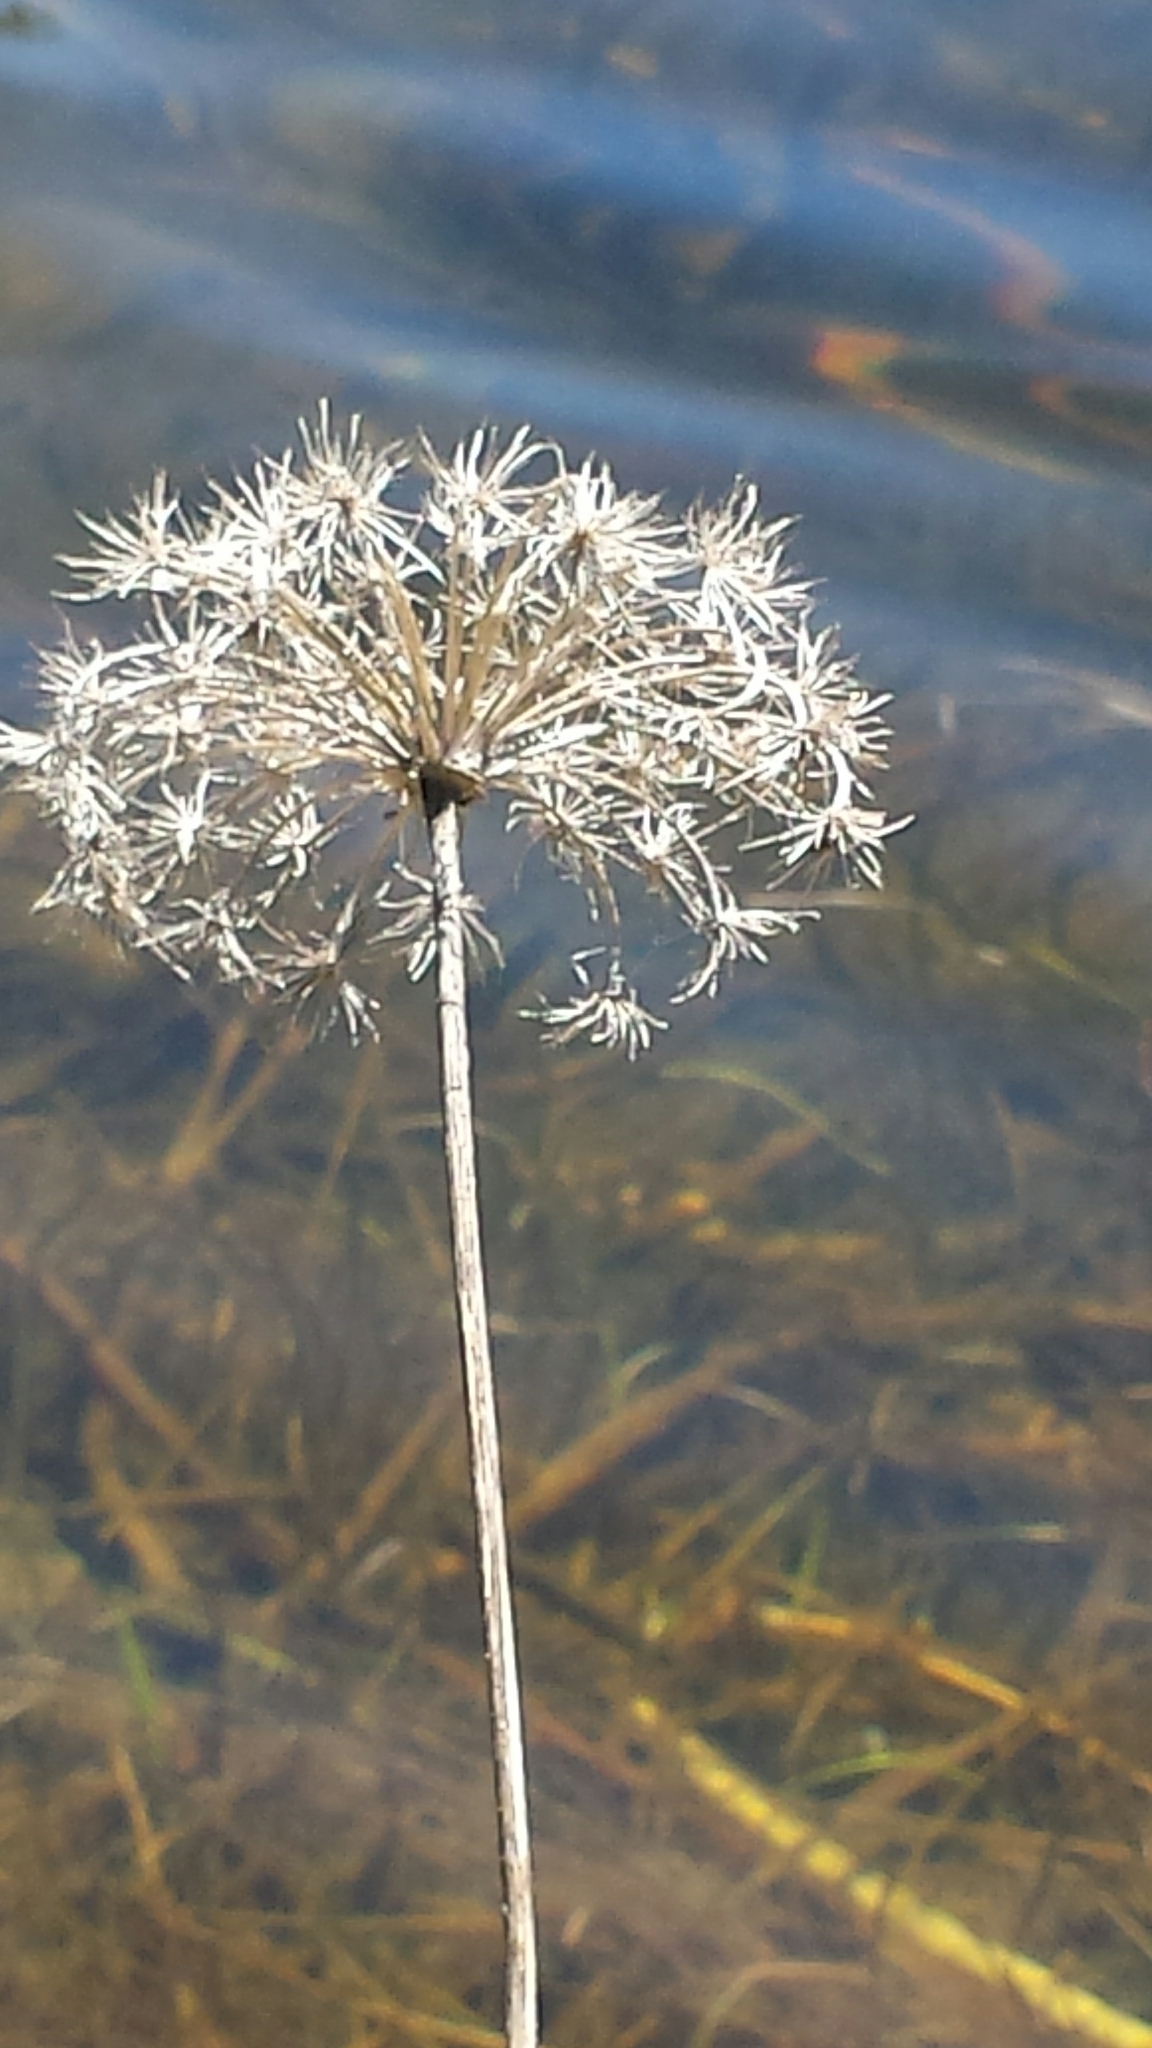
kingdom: Plantae
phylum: Tracheophyta
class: Magnoliopsida
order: Apiales
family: Apiaceae
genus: Daucus
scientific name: Daucus carota
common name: Wild carrot
